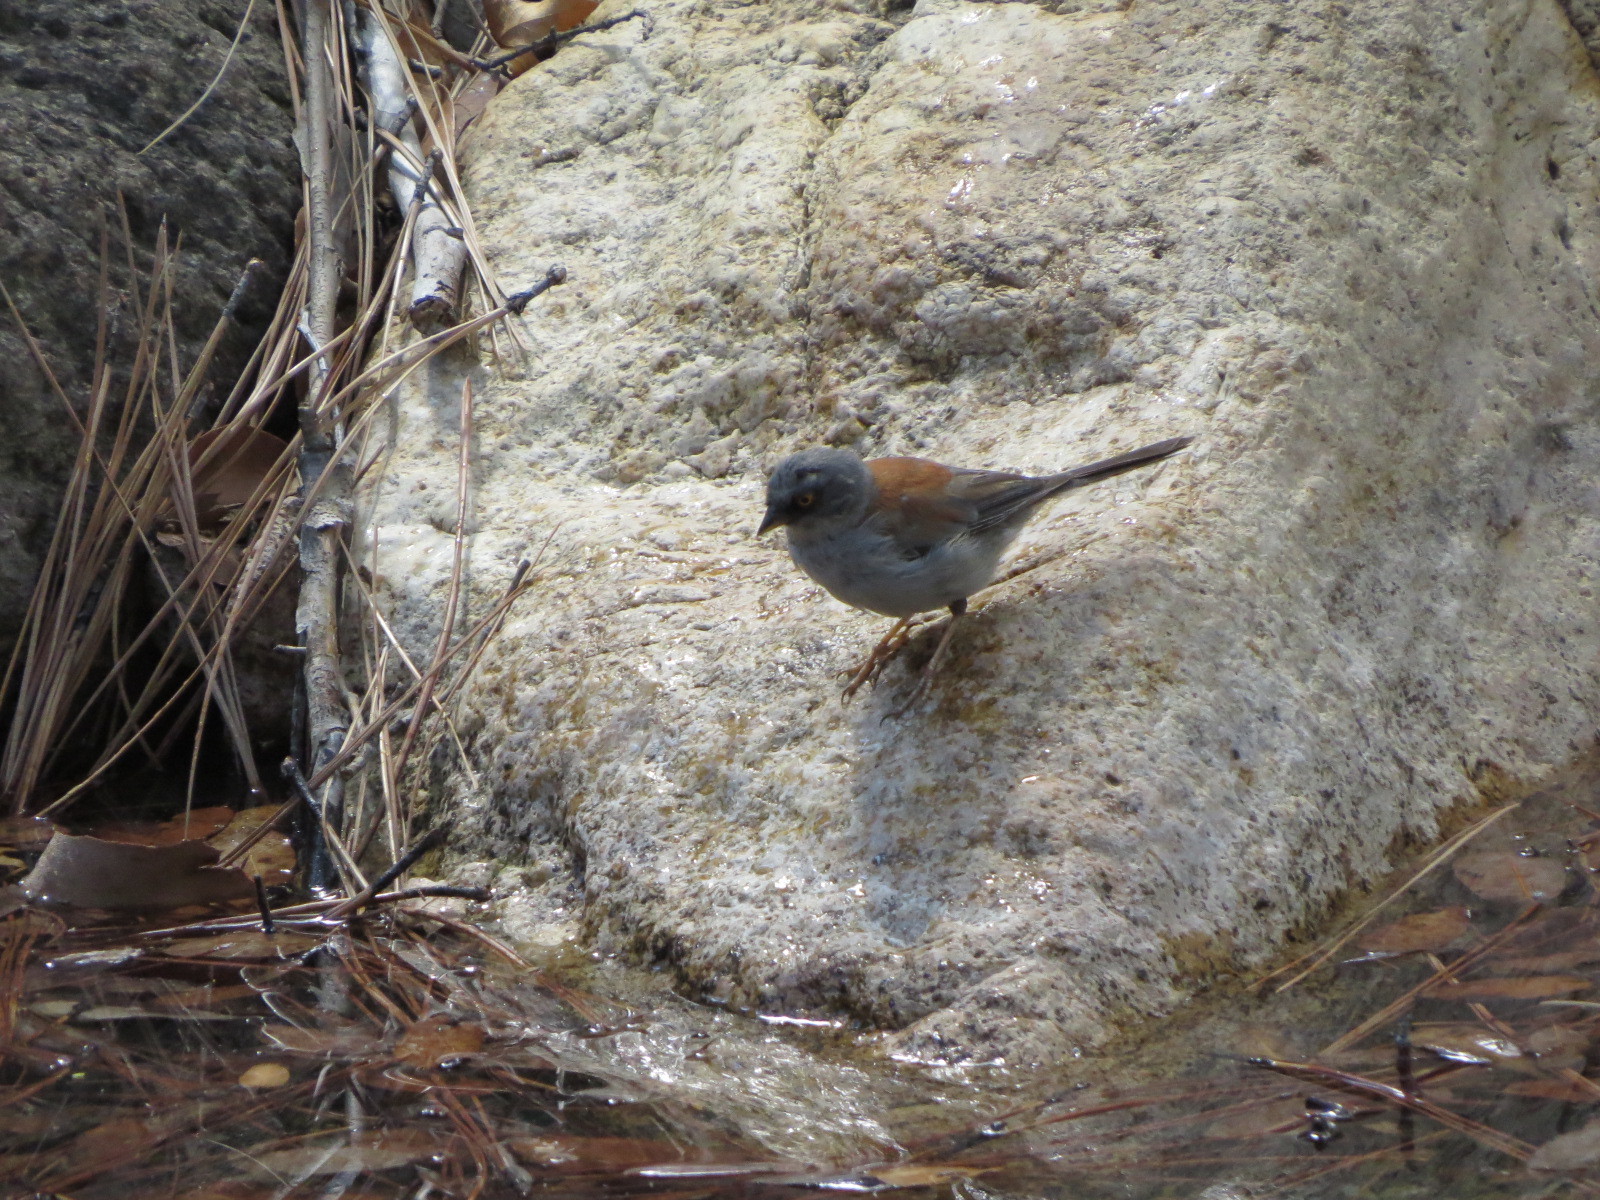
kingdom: Animalia
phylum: Chordata
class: Aves
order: Passeriformes
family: Passerellidae
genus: Junco
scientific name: Junco phaeonotus
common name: Yellow-eyed junco
